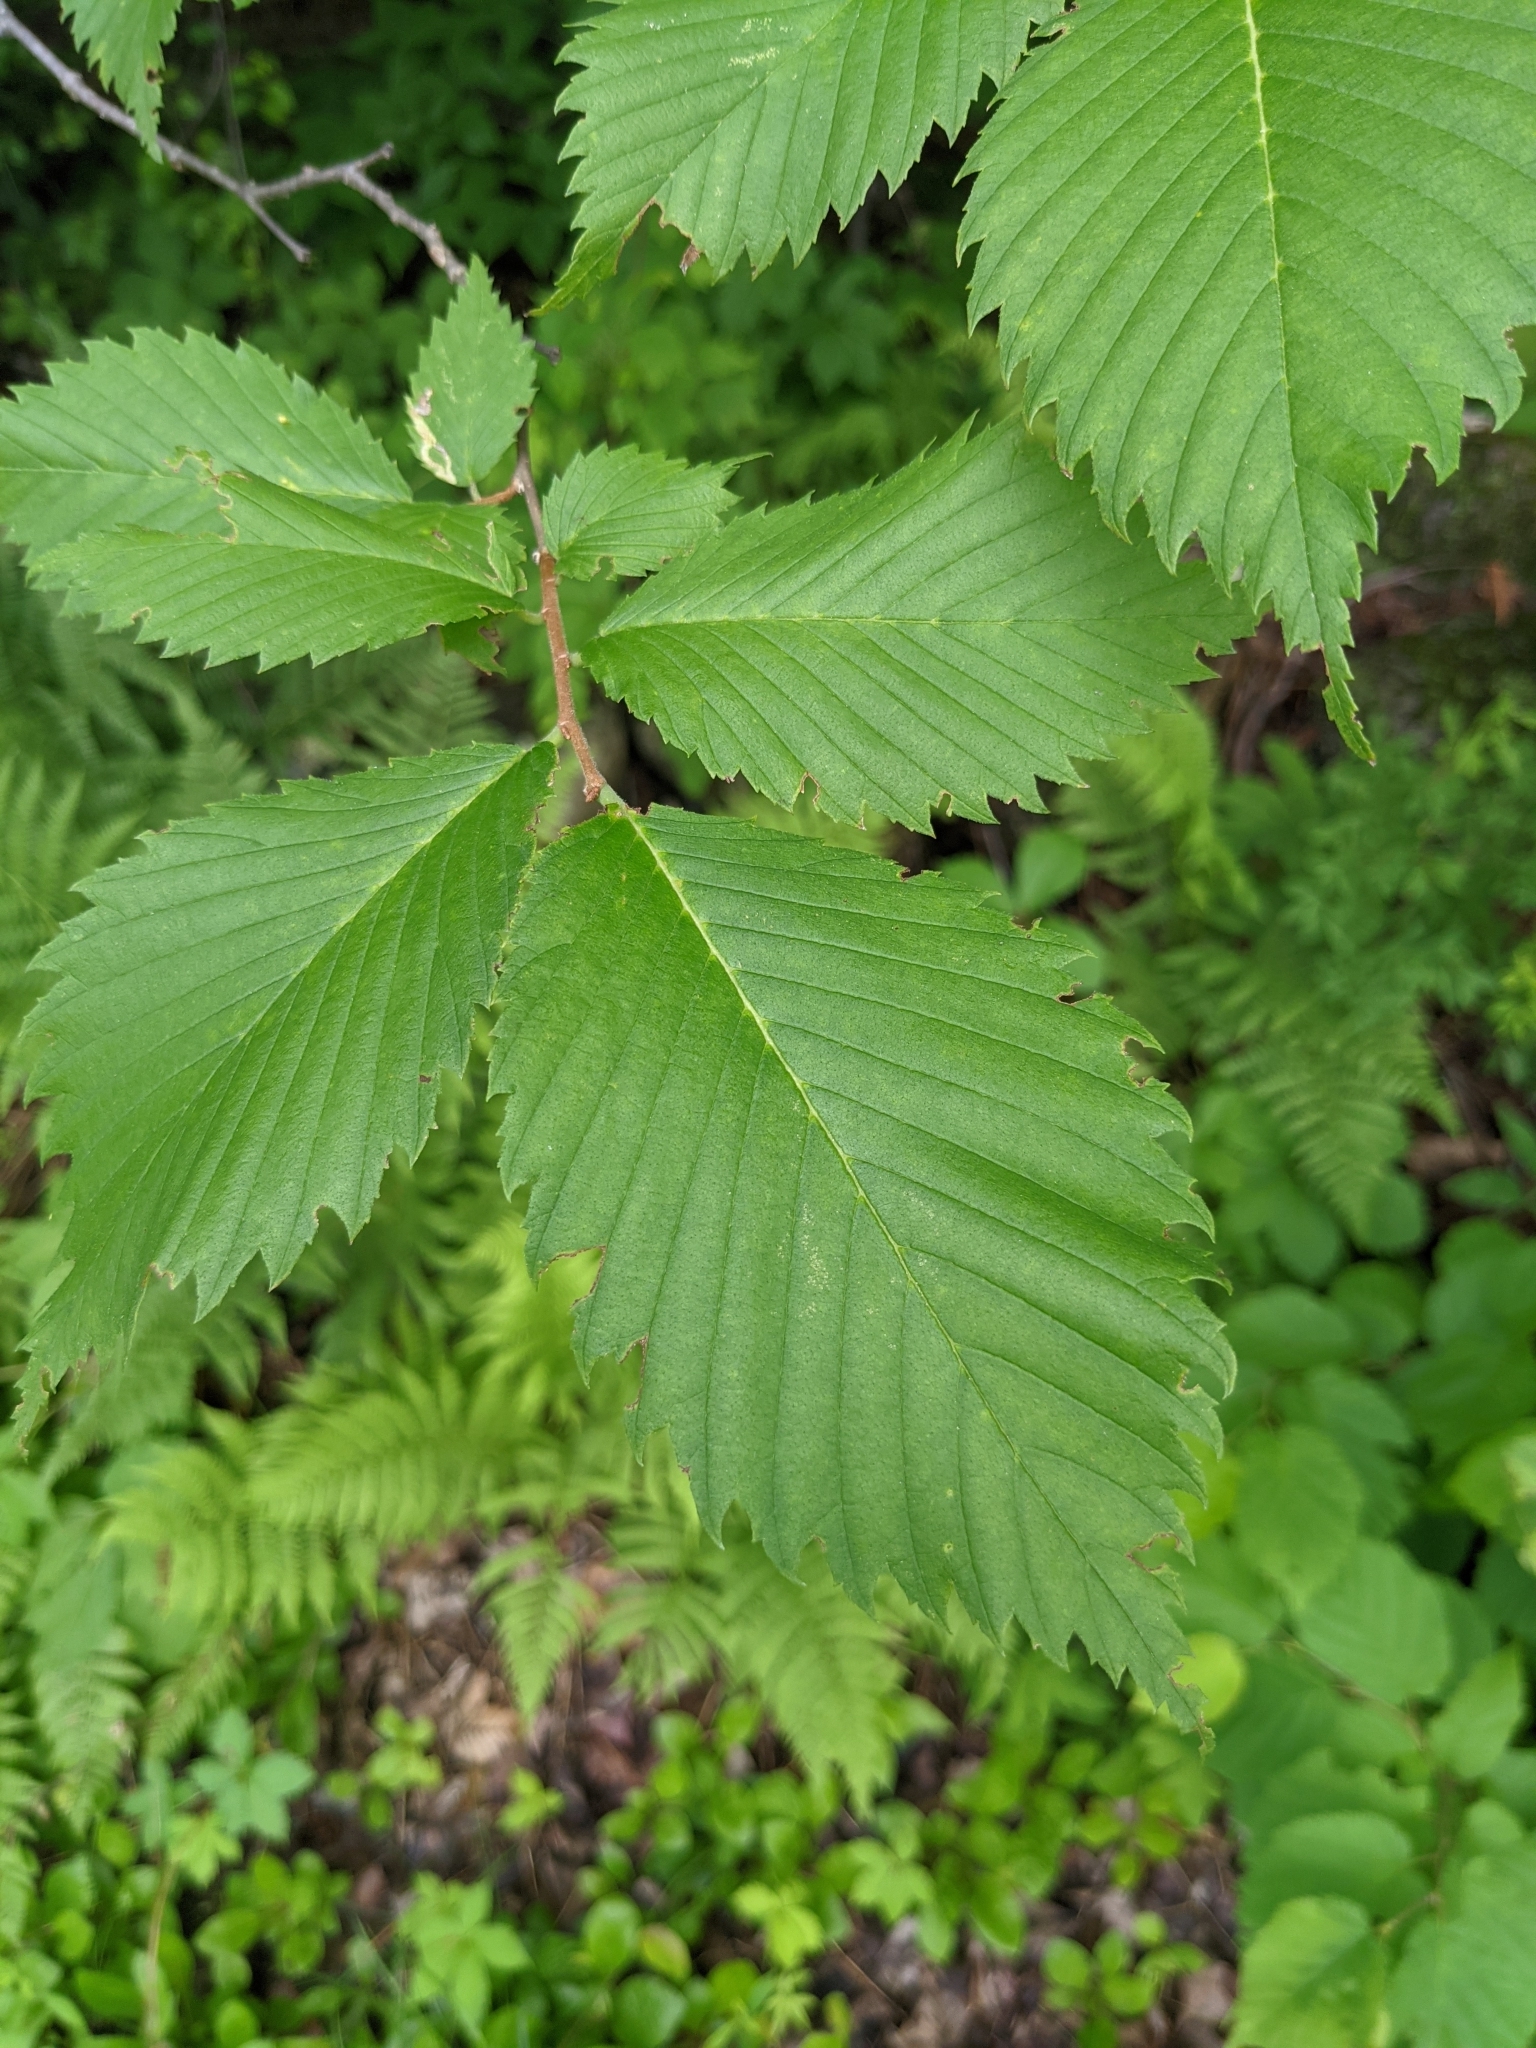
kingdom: Plantae
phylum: Tracheophyta
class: Magnoliopsida
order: Rosales
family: Ulmaceae
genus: Ulmus
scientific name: Ulmus americana
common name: American elm
